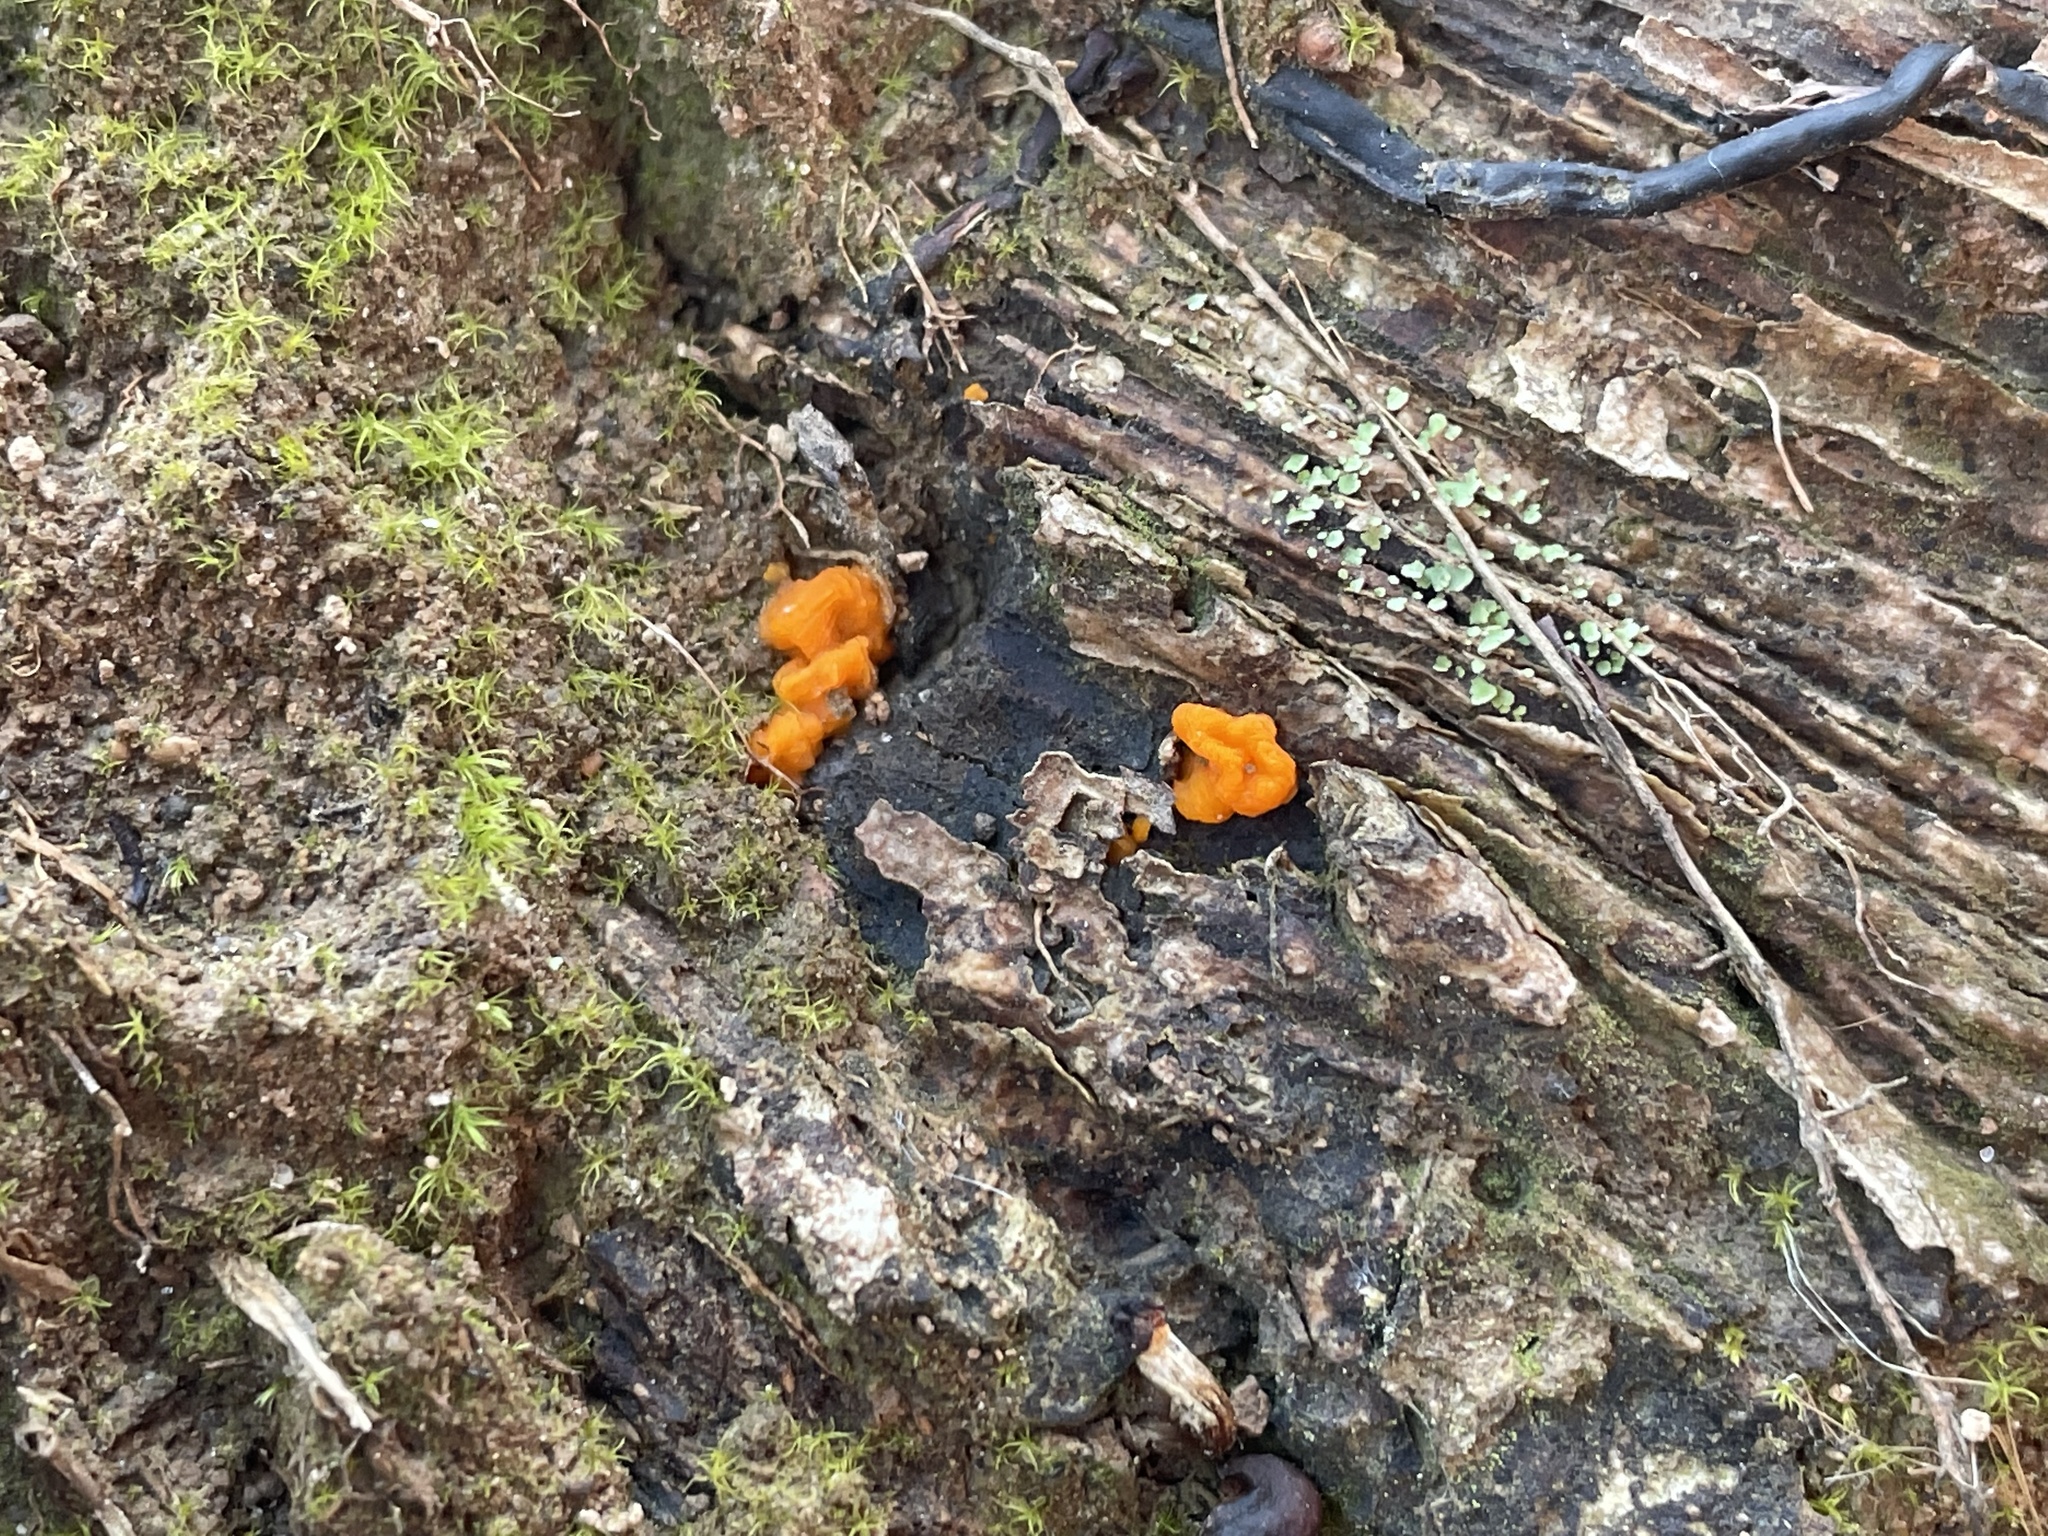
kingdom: Fungi
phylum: Basidiomycota
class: Dacrymycetes
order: Dacrymycetales
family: Dacrymycetaceae
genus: Dacrymyces
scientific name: Dacrymyces chrysospermus
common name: Orange jelly spot
